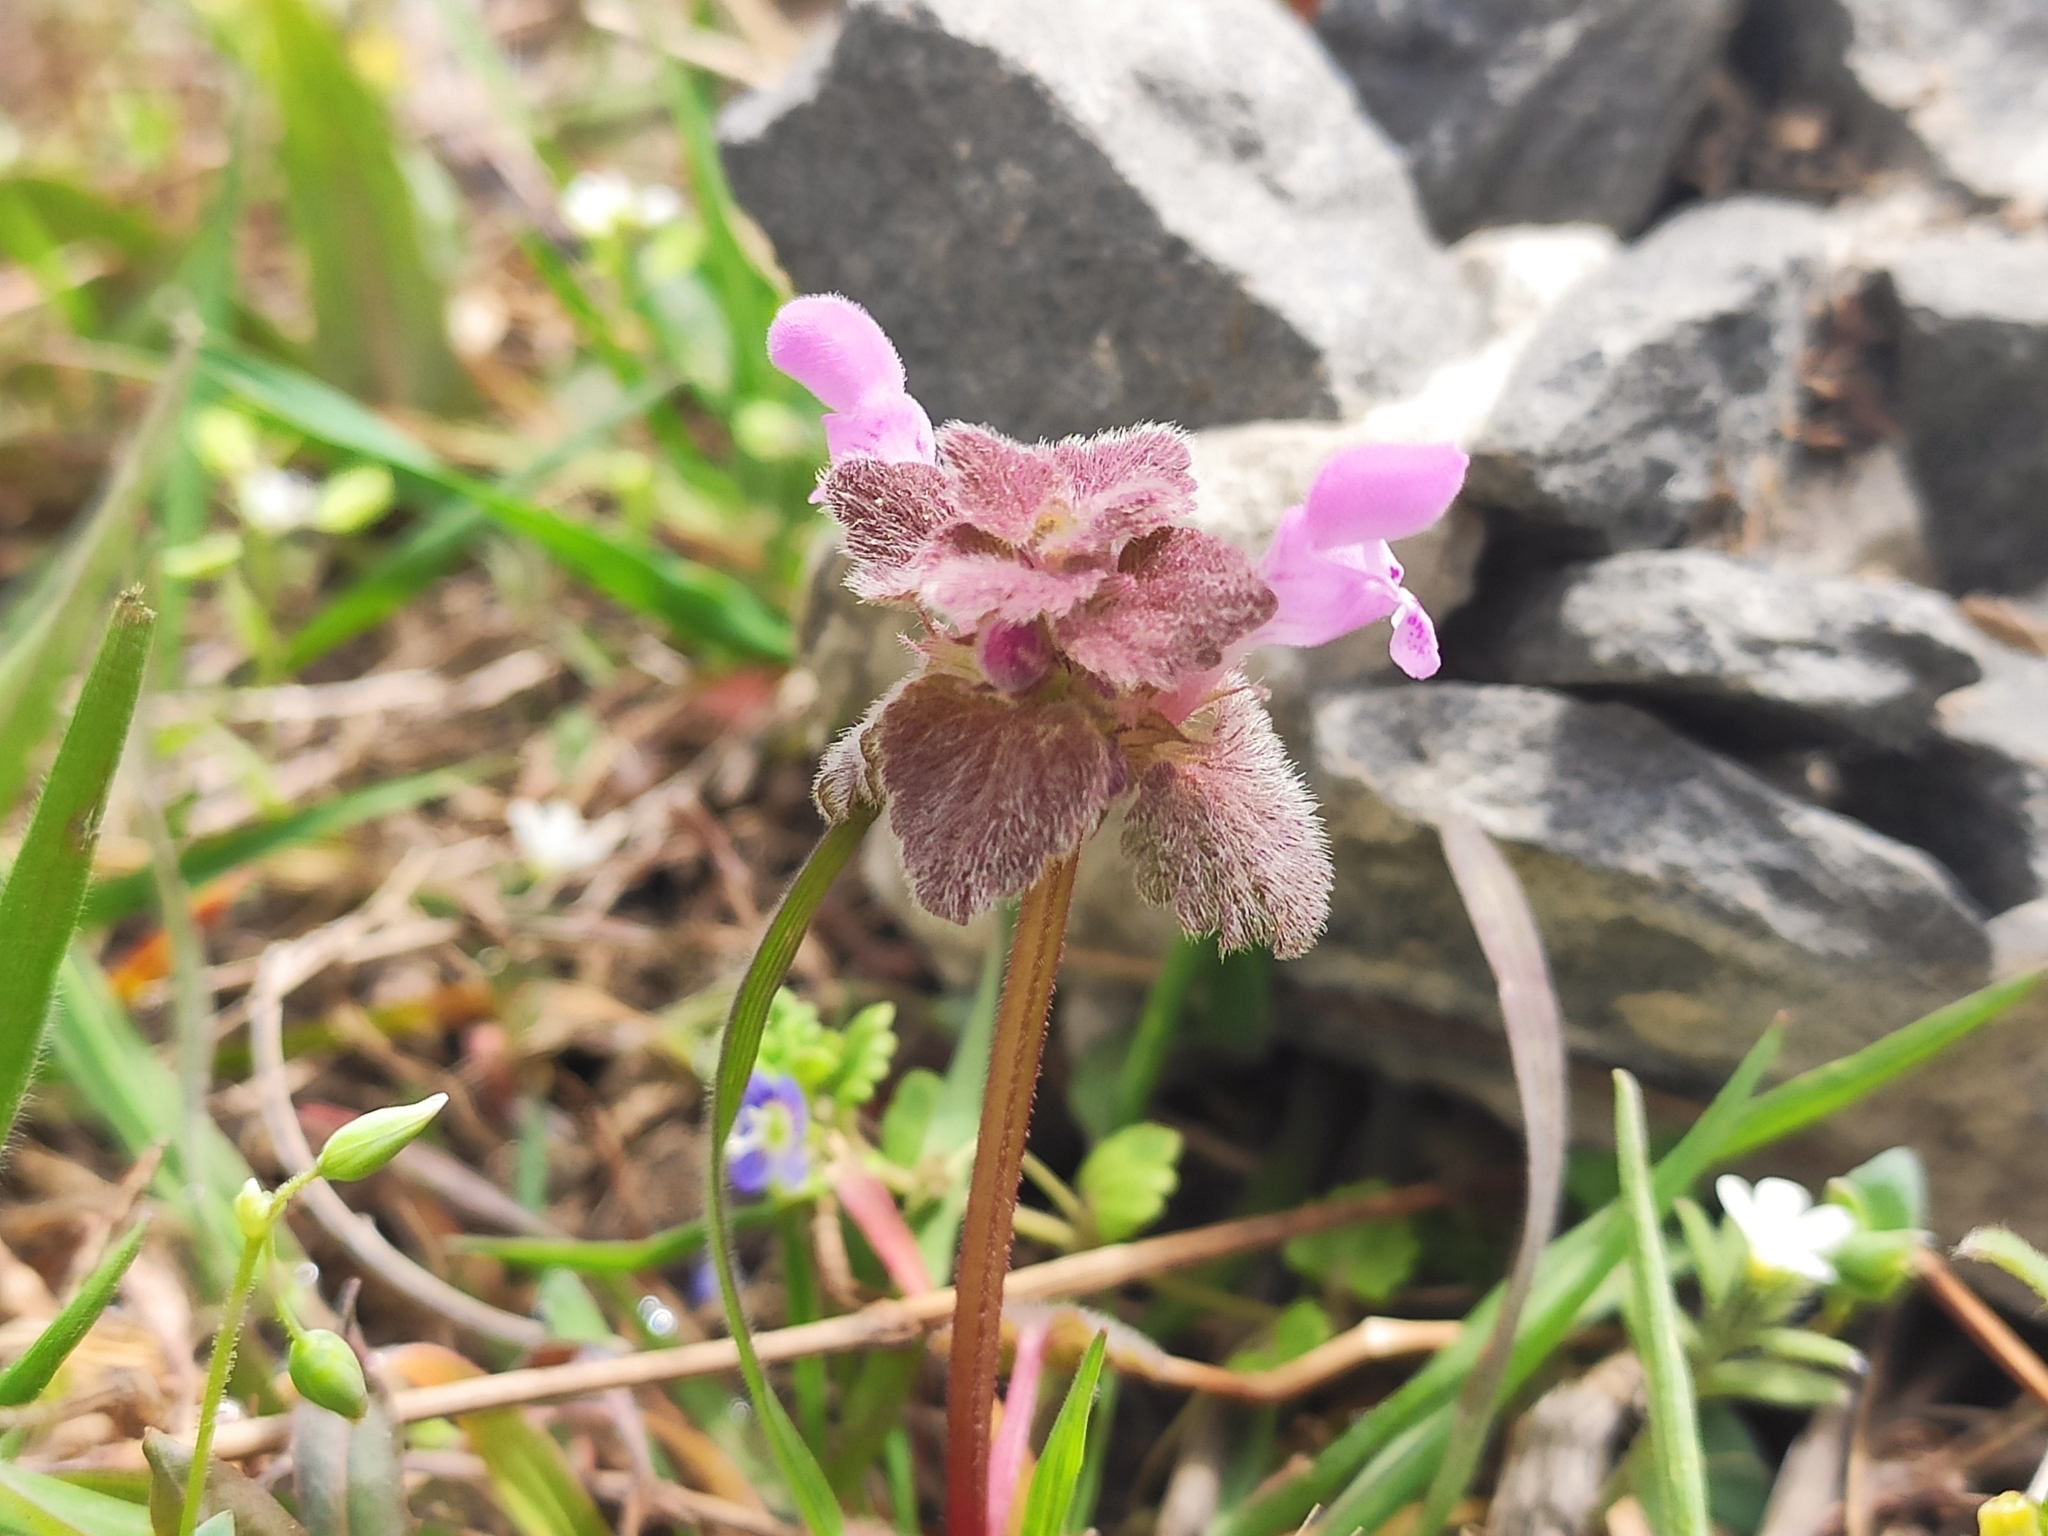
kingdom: Plantae
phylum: Tracheophyta
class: Magnoliopsida
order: Lamiales
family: Lamiaceae
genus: Lamium
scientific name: Lamium purpureum
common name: Red dead-nettle
